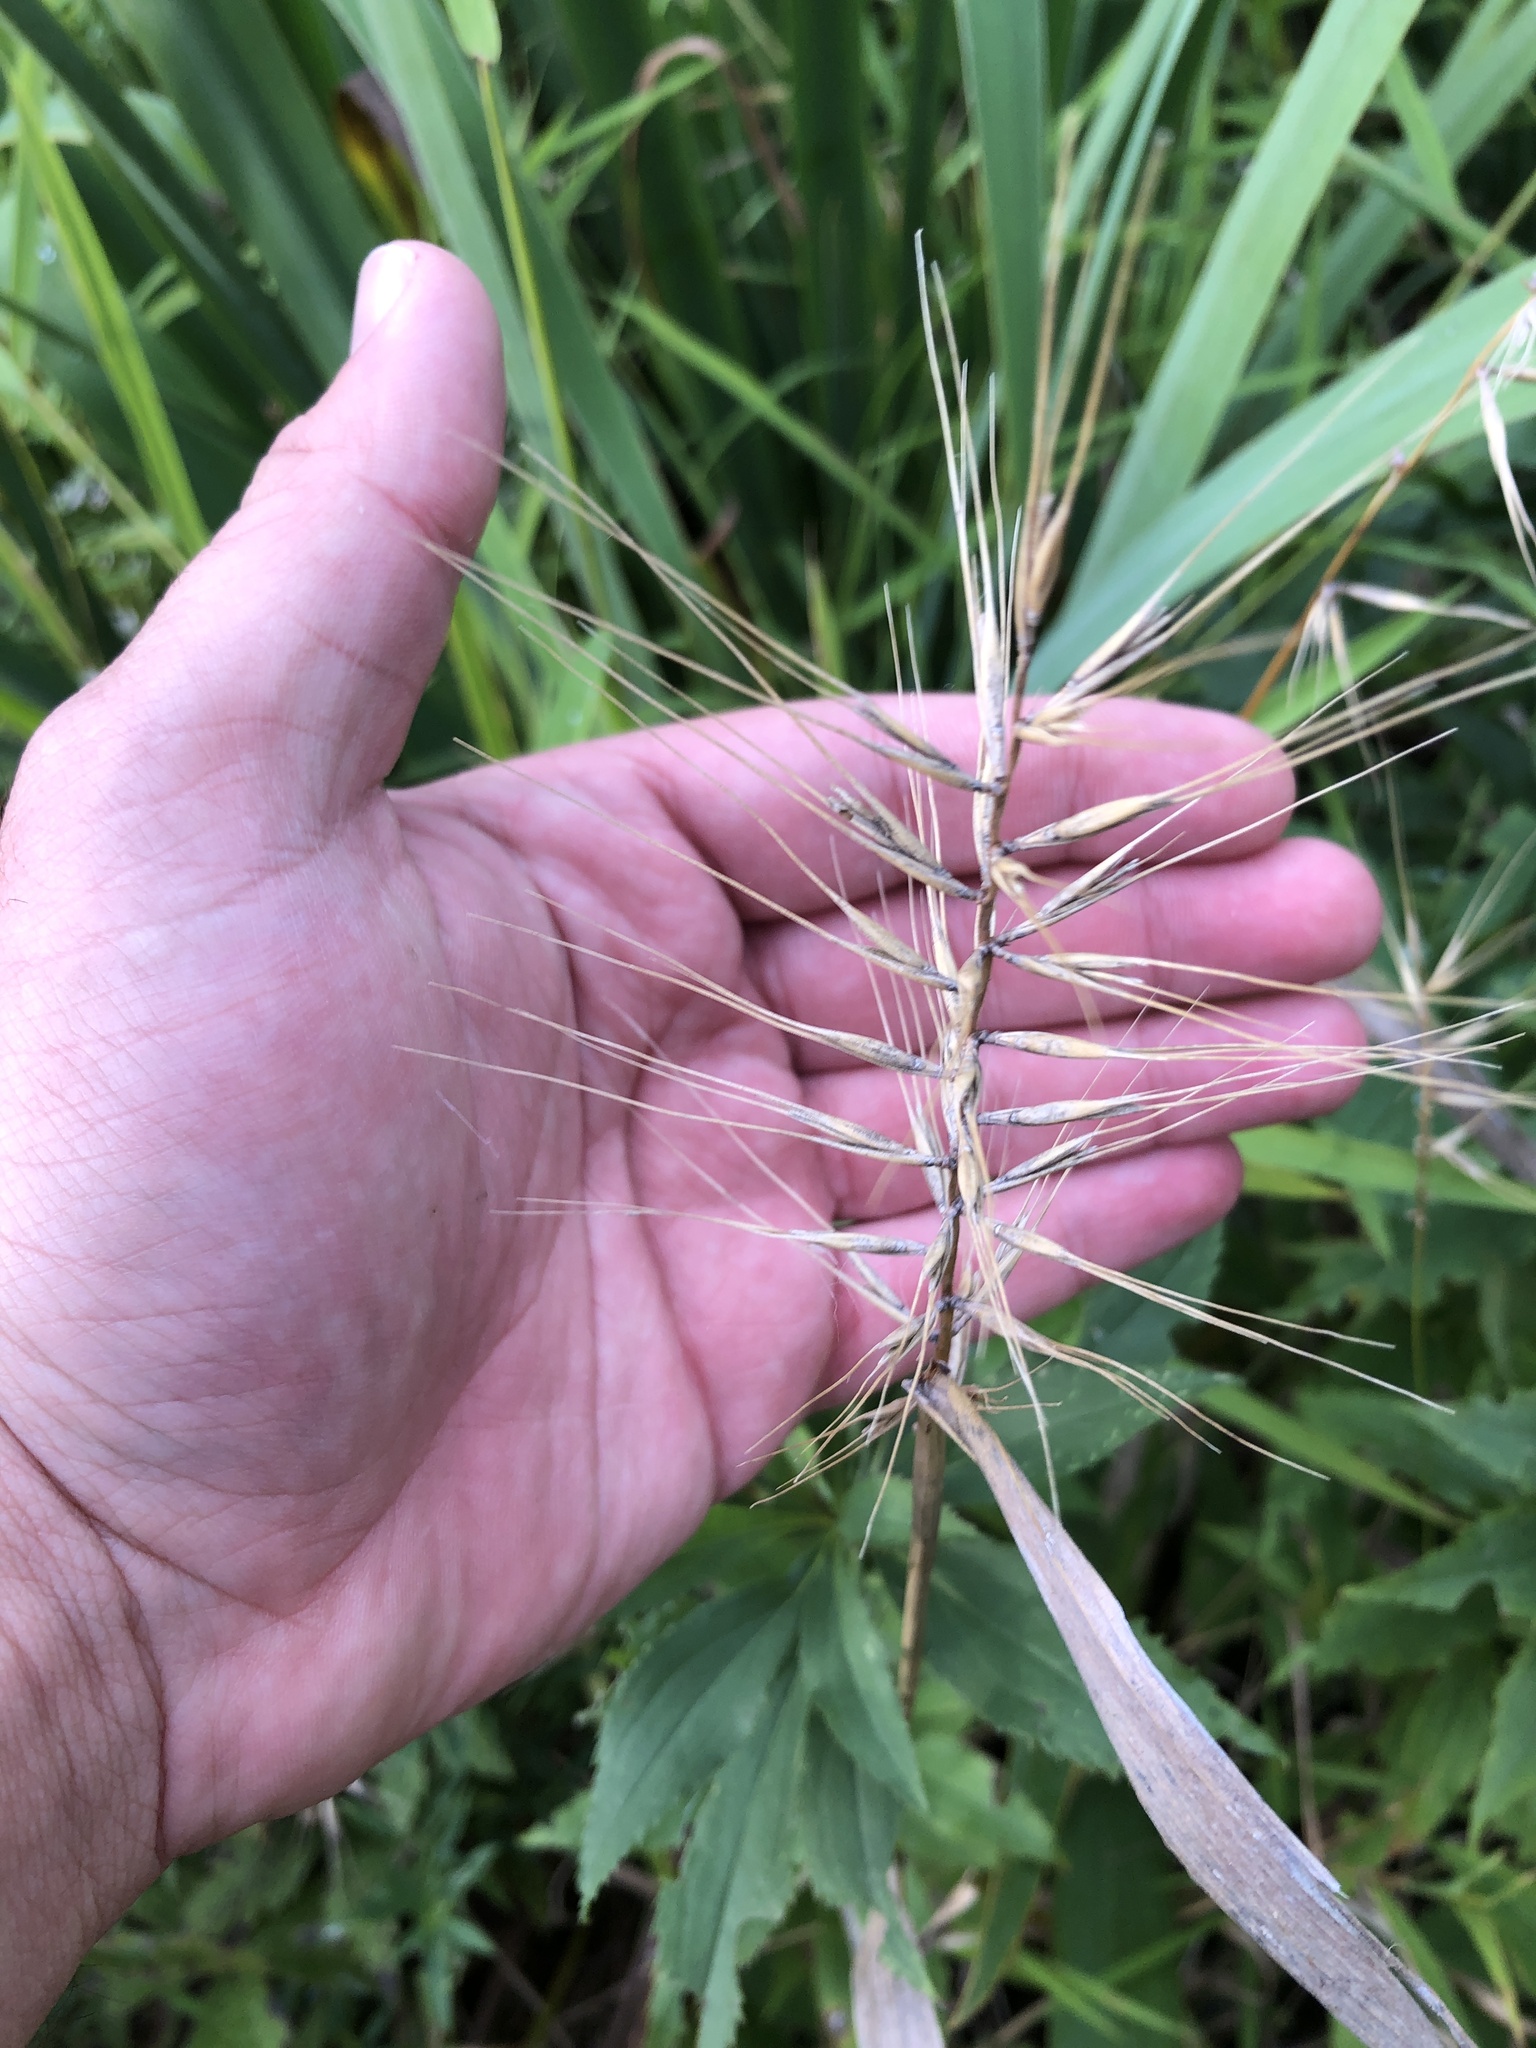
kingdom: Plantae
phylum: Tracheophyta
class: Liliopsida
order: Poales
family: Poaceae
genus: Elymus
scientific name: Elymus hystrix
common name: Bottlebrush grass
